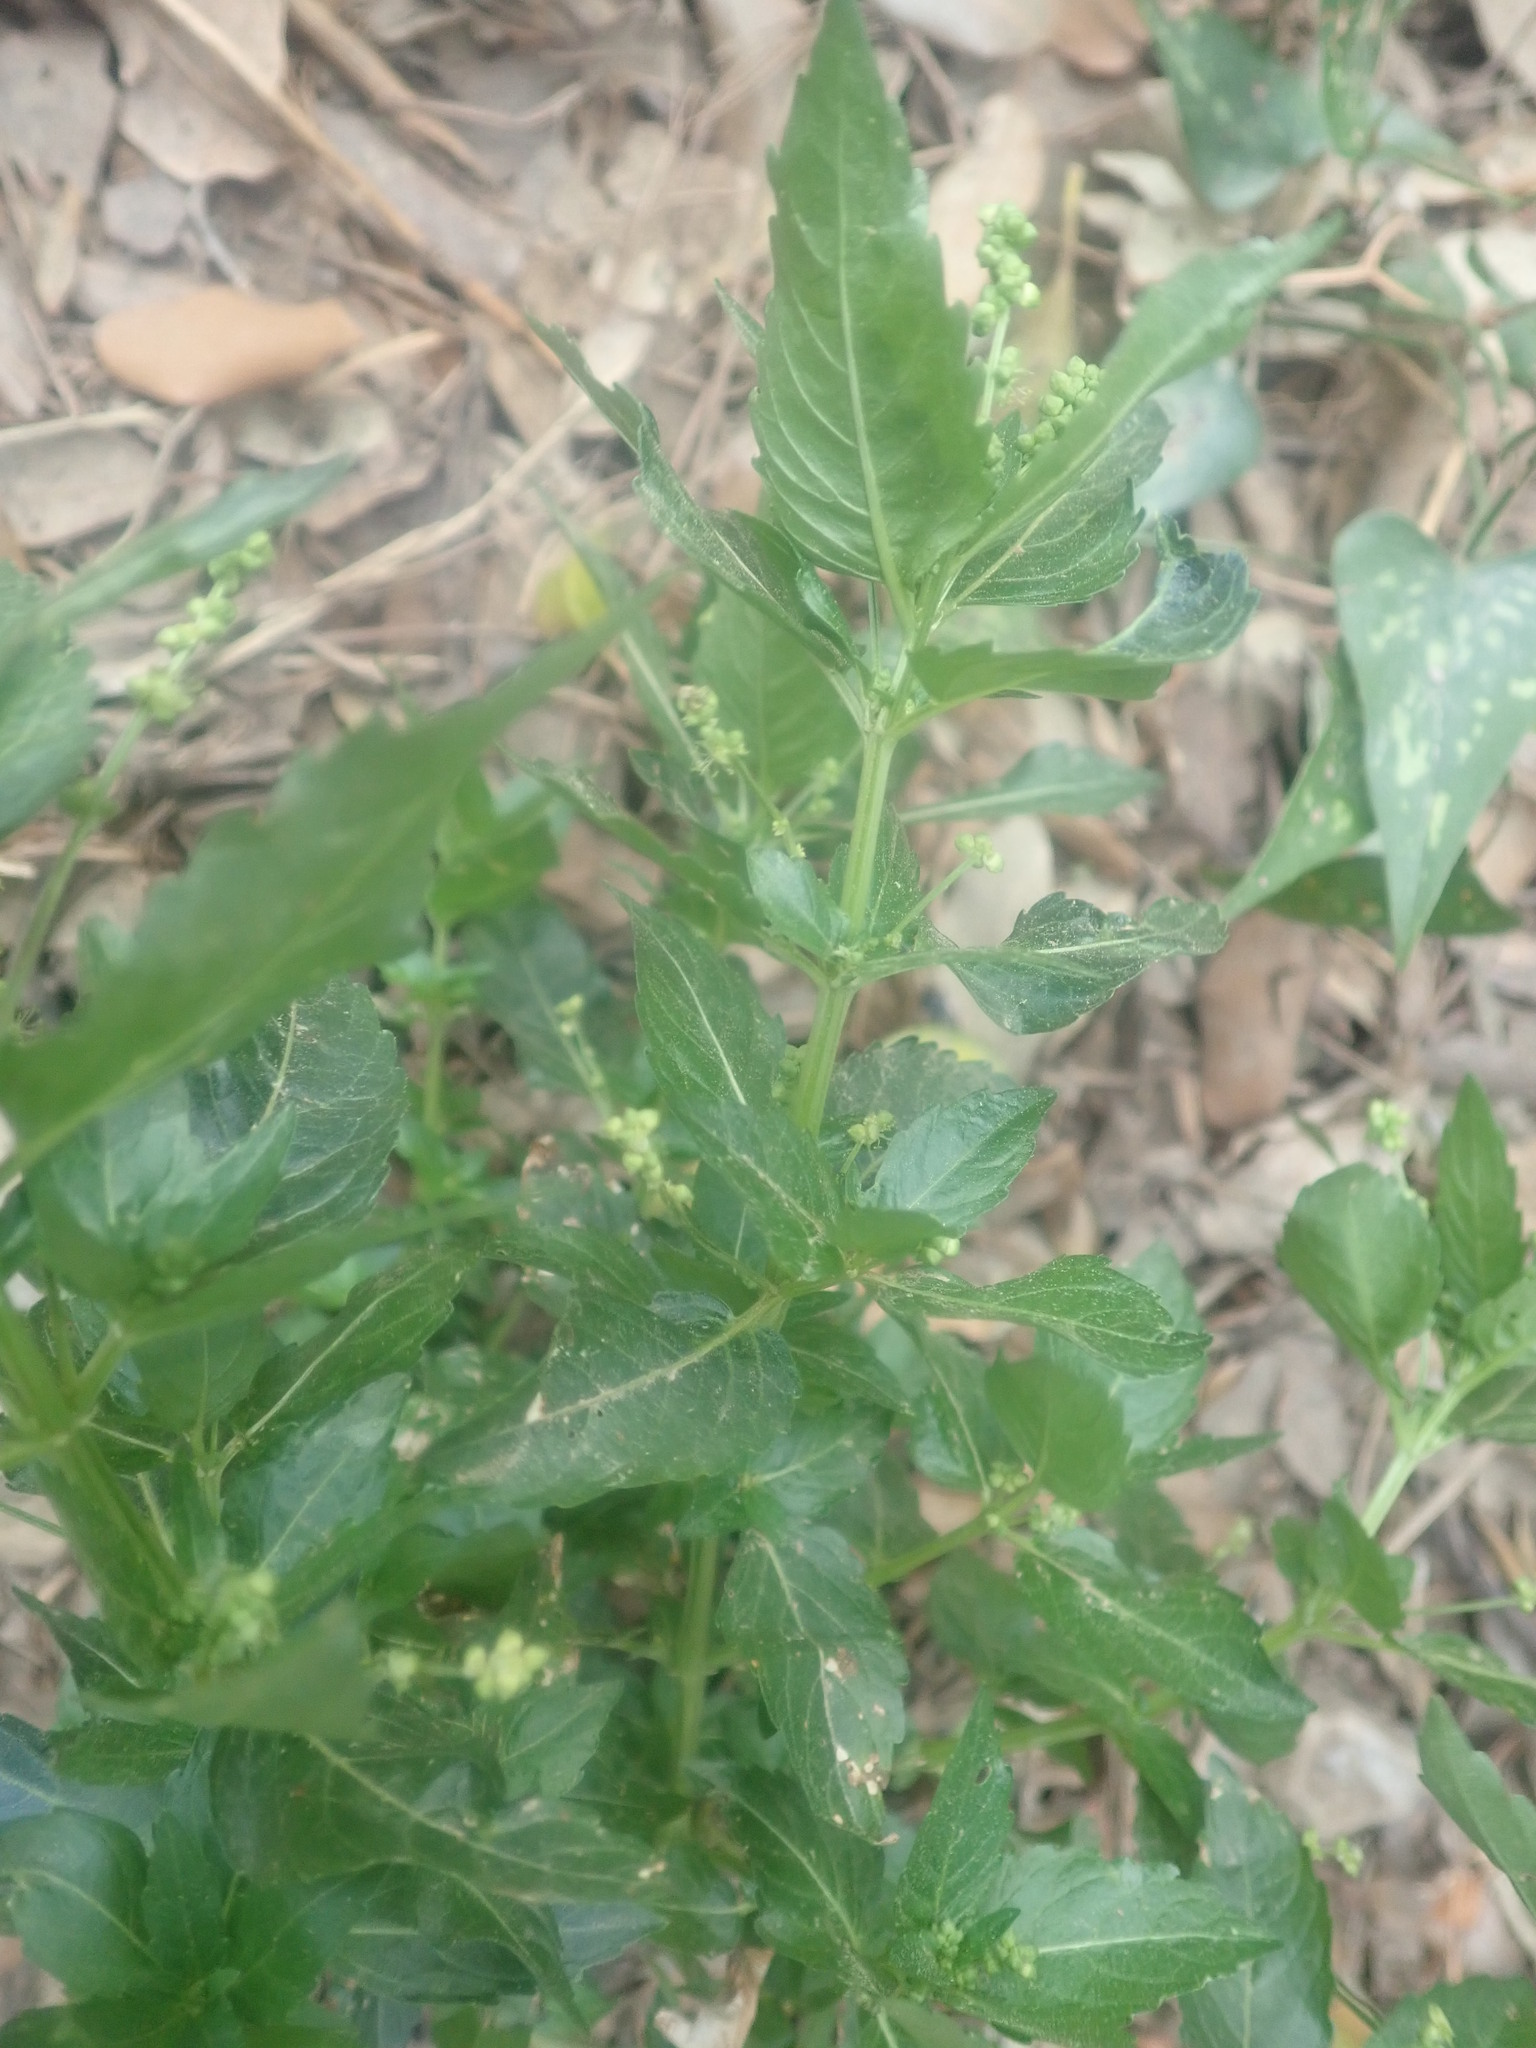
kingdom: Plantae
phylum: Tracheophyta
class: Magnoliopsida
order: Malpighiales
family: Euphorbiaceae
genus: Mercurialis
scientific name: Mercurialis annua
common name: Annual mercury
